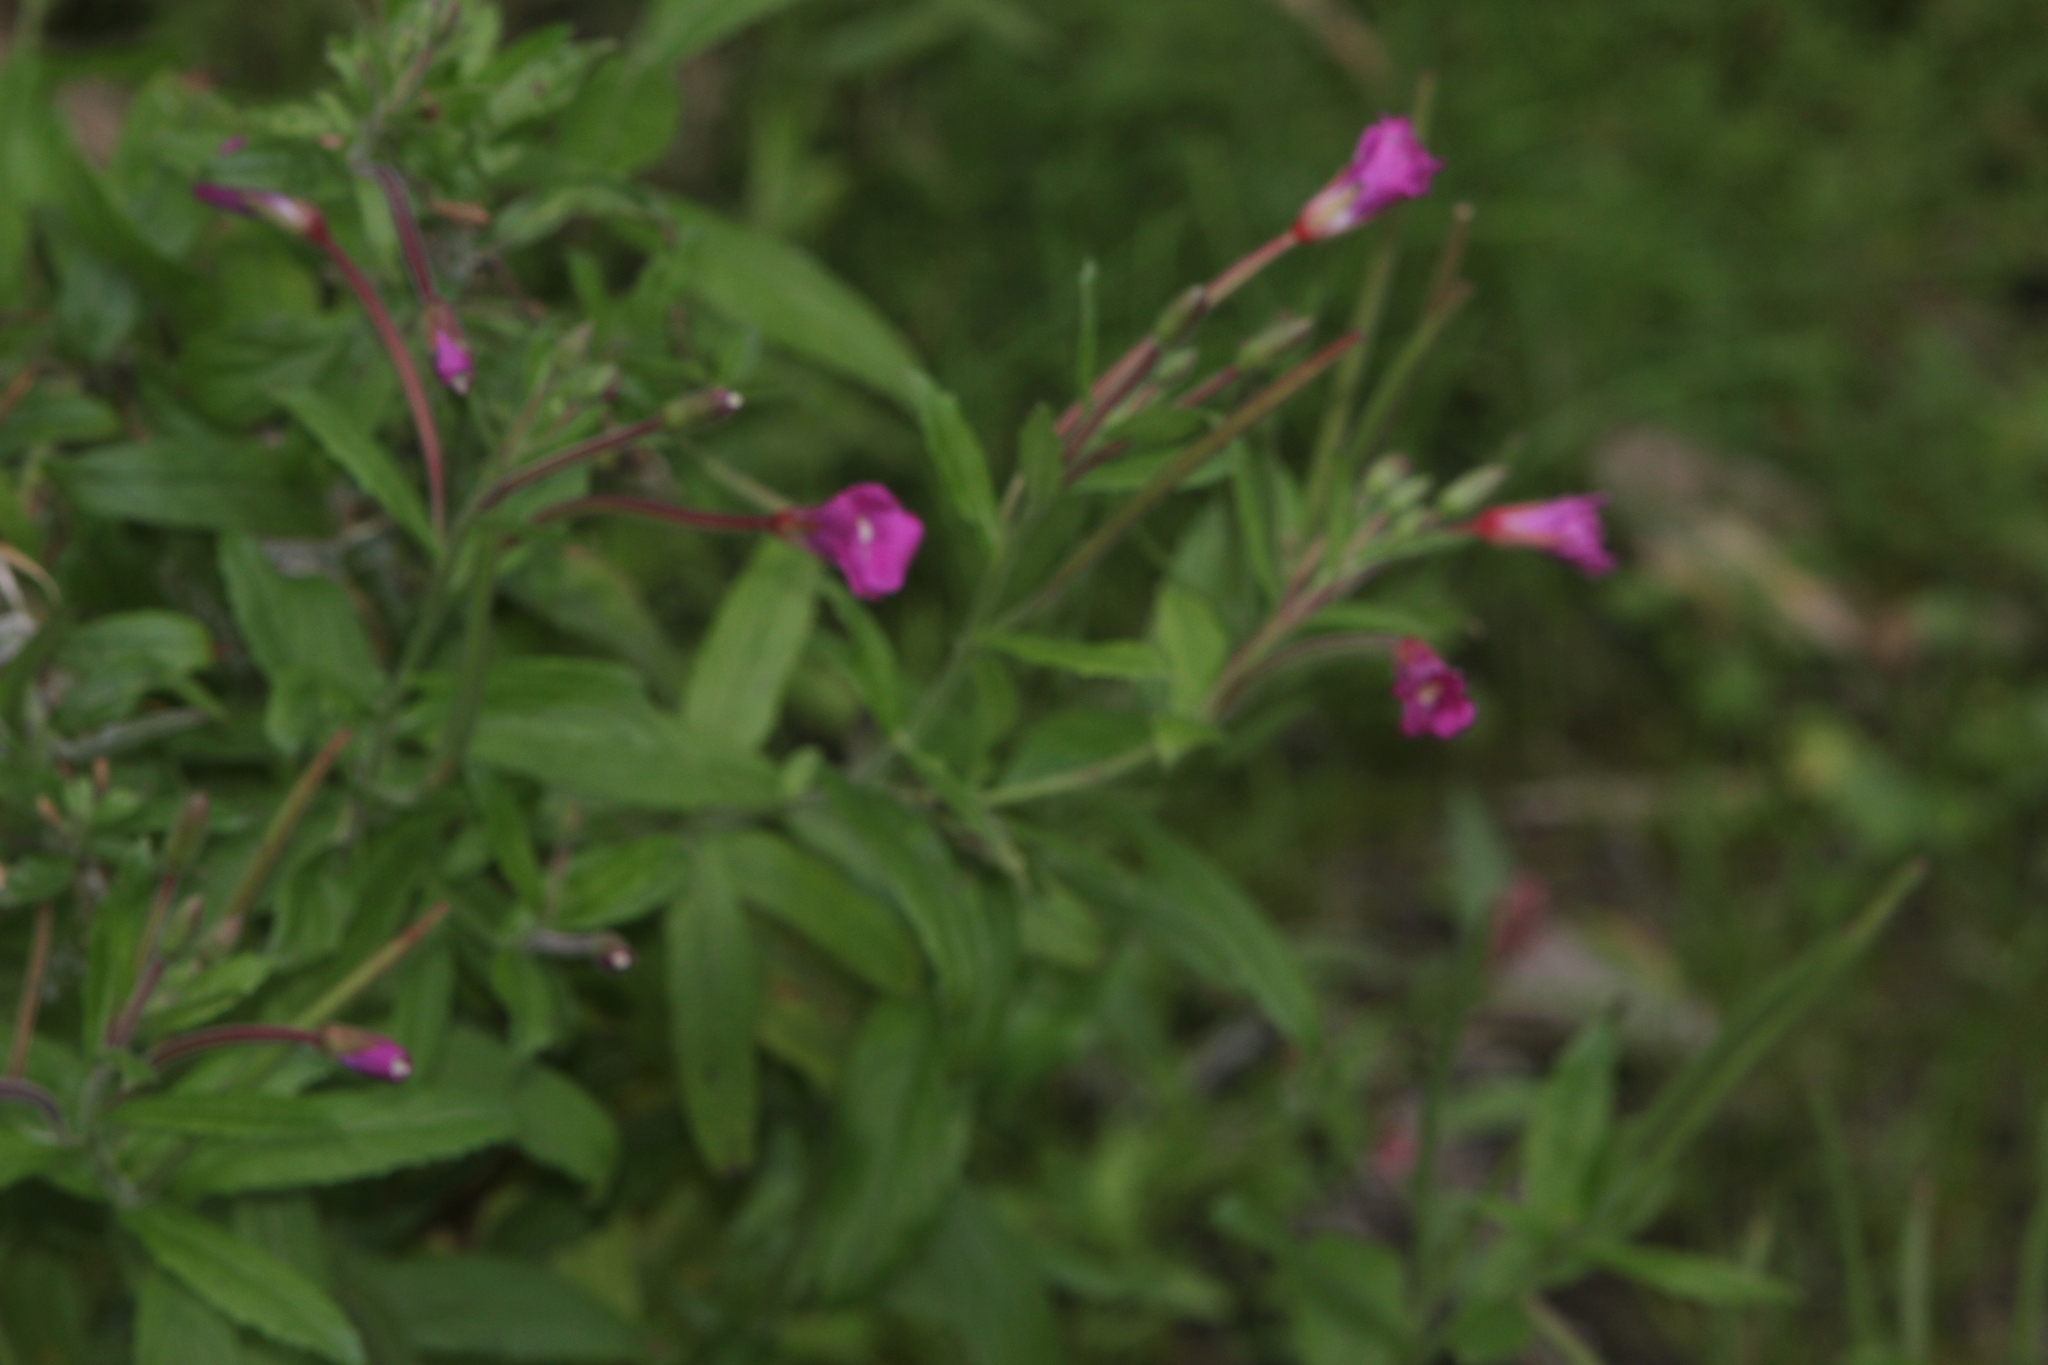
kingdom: Plantae
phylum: Tracheophyta
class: Magnoliopsida
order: Myrtales
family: Onagraceae
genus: Epilobium
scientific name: Epilobium hirsutum
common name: Great willowherb
